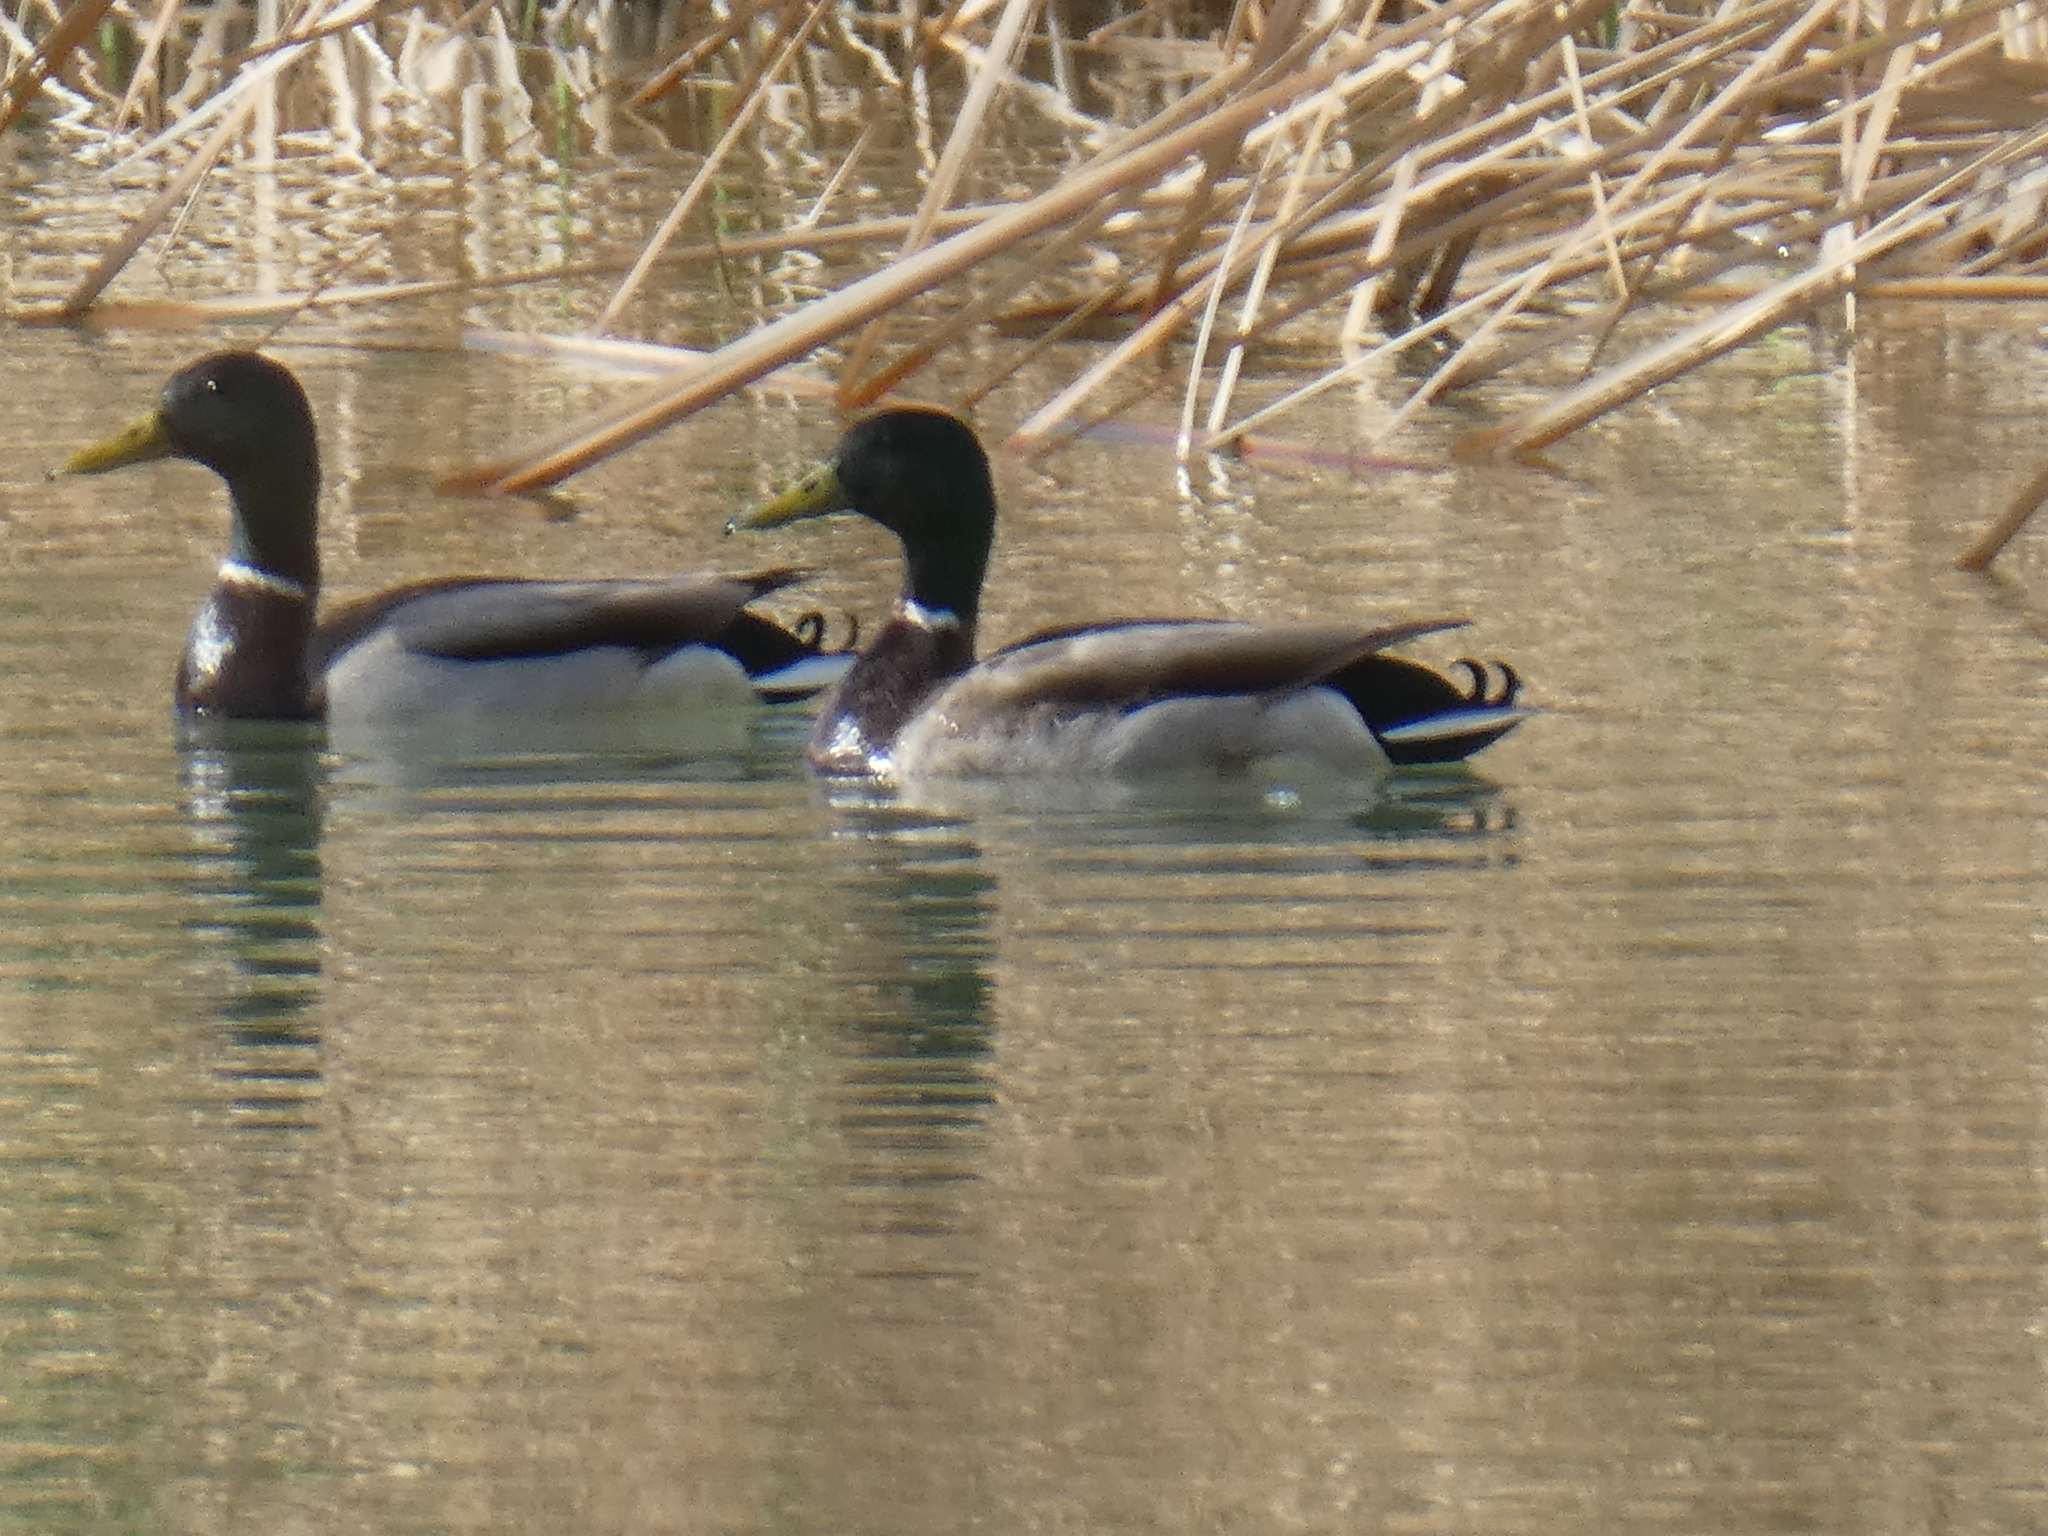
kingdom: Animalia
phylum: Chordata
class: Aves
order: Anseriformes
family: Anatidae
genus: Anas
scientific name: Anas platyrhynchos
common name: Mallard
